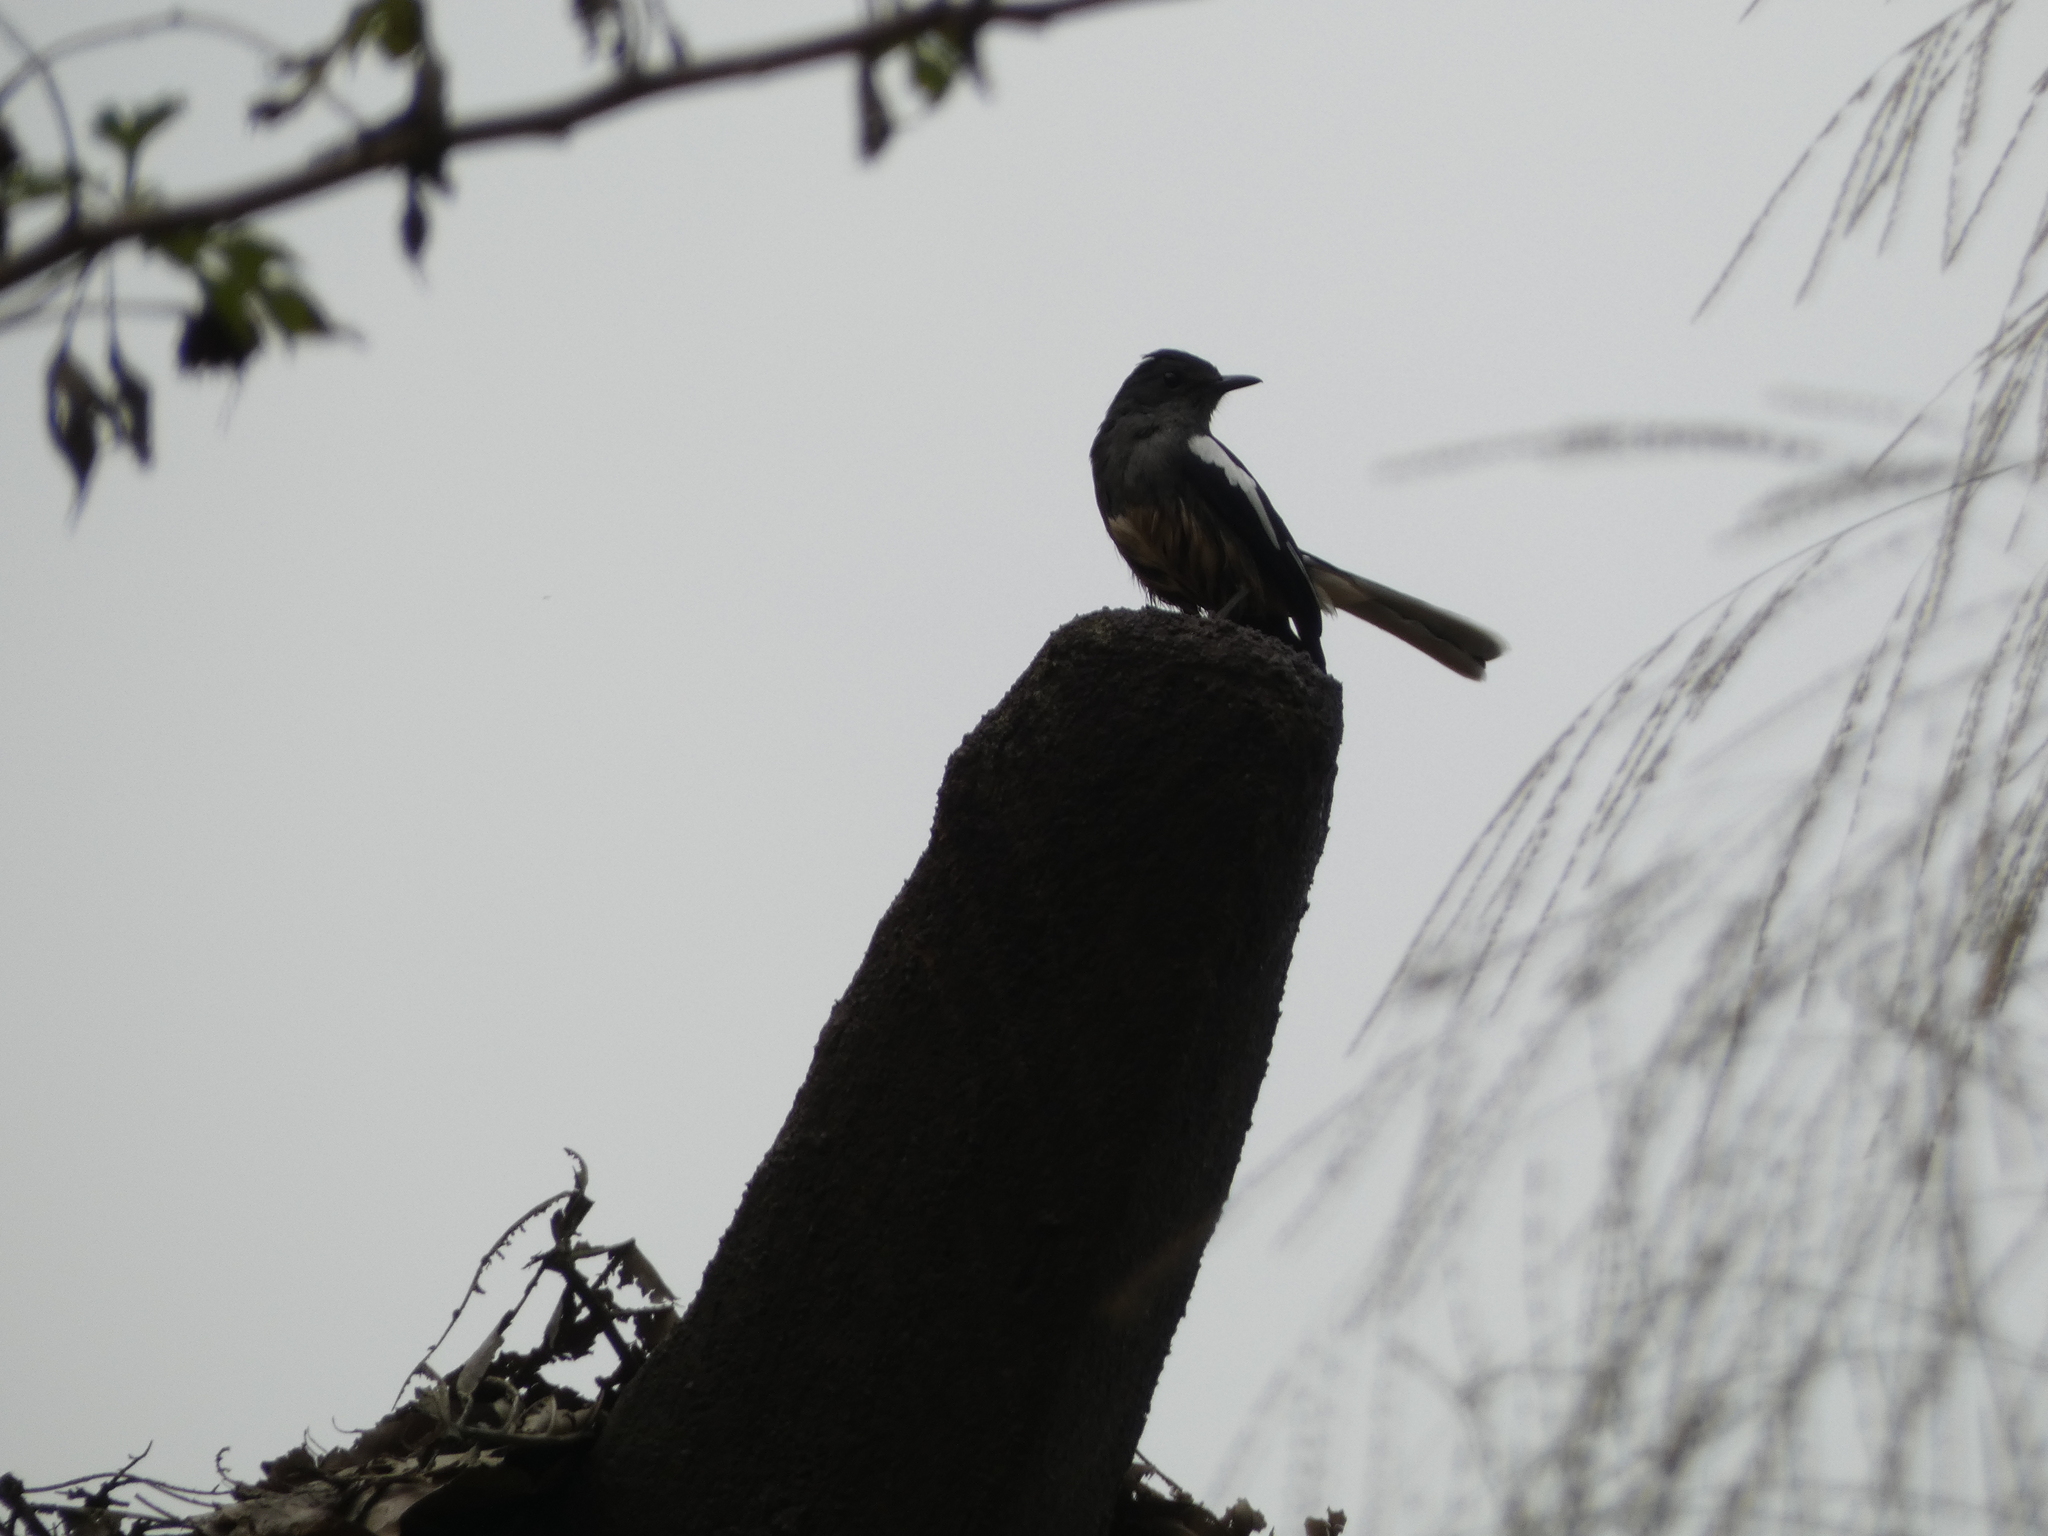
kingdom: Animalia
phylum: Chordata
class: Aves
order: Passeriformes
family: Muscicapidae
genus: Copsychus
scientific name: Copsychus saularis
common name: Oriental magpie-robin
